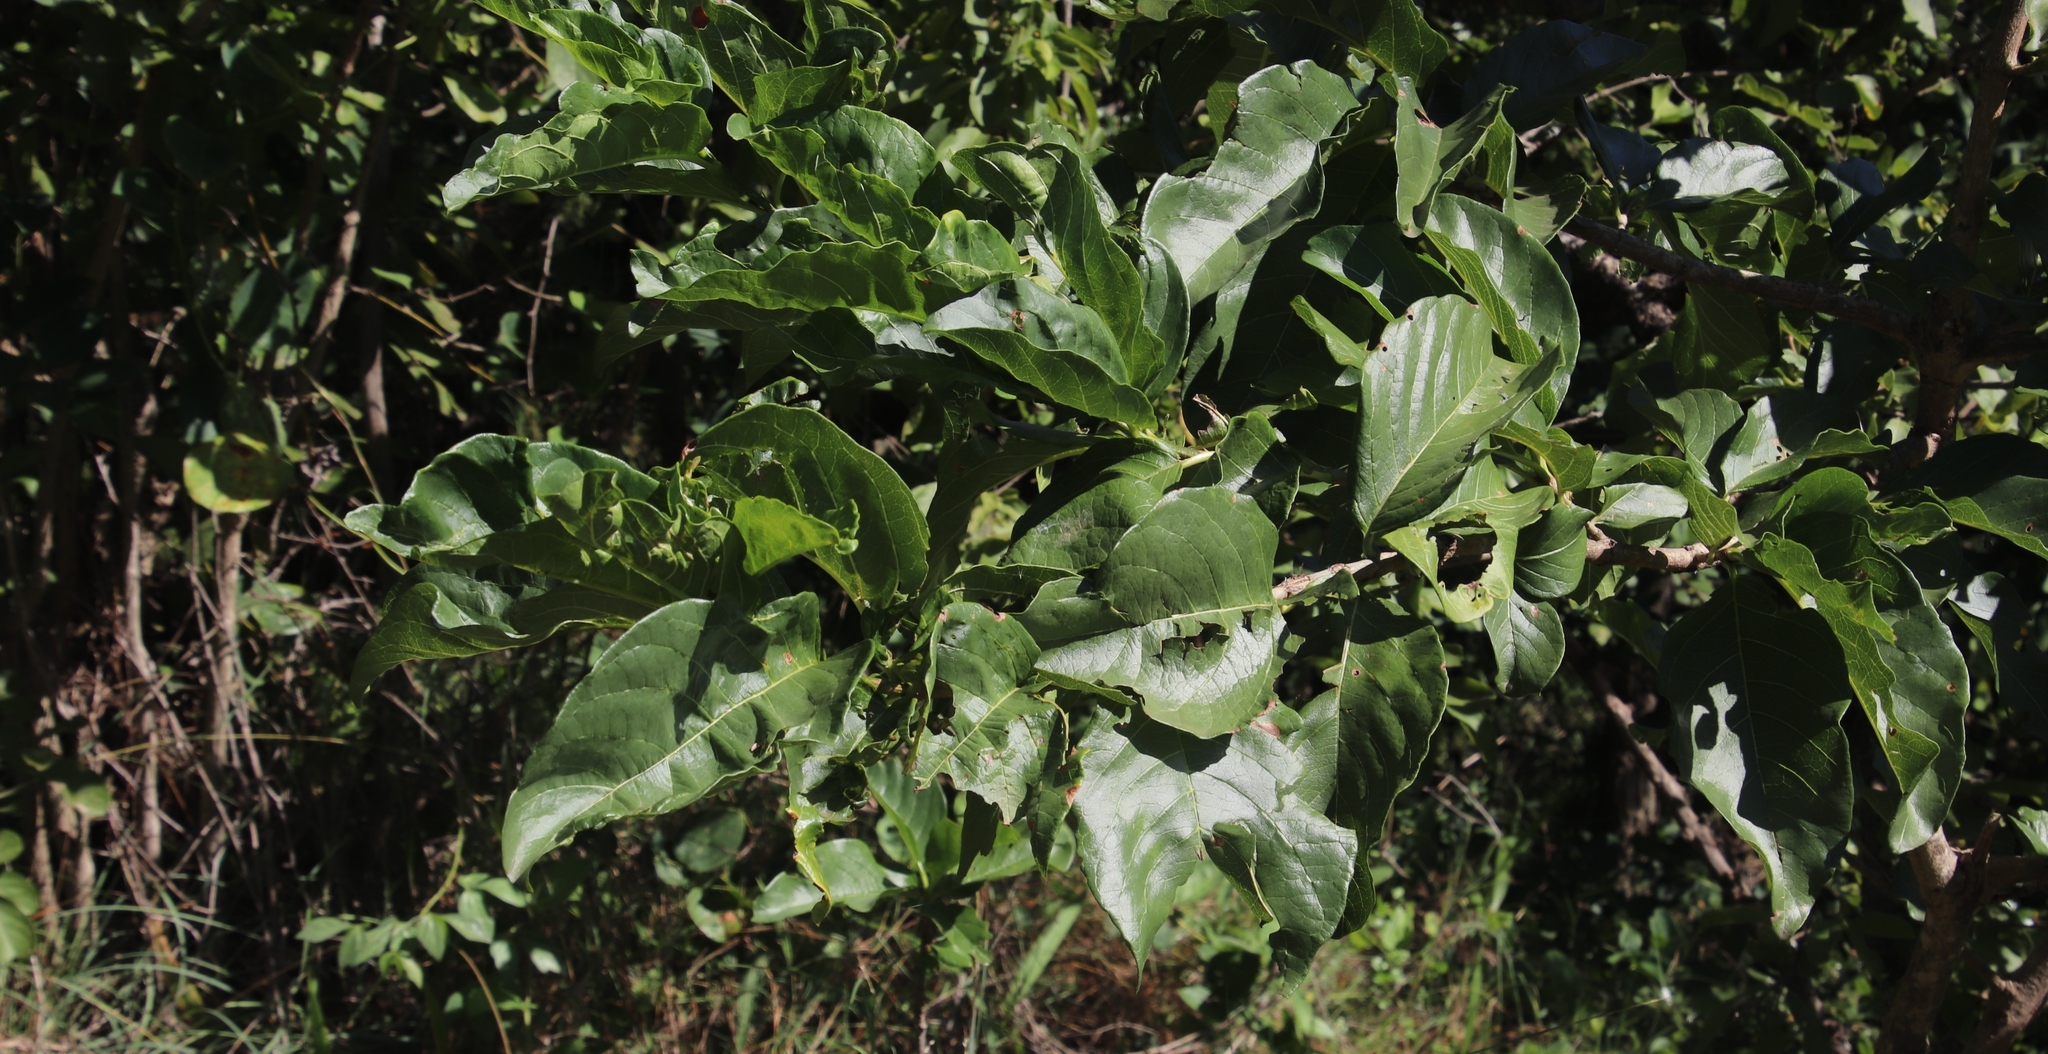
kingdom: Plantae
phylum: Tracheophyta
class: Magnoliopsida
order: Gentianales
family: Rubiaceae
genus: Vangueria
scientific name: Vangueria infausta
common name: Medlar
